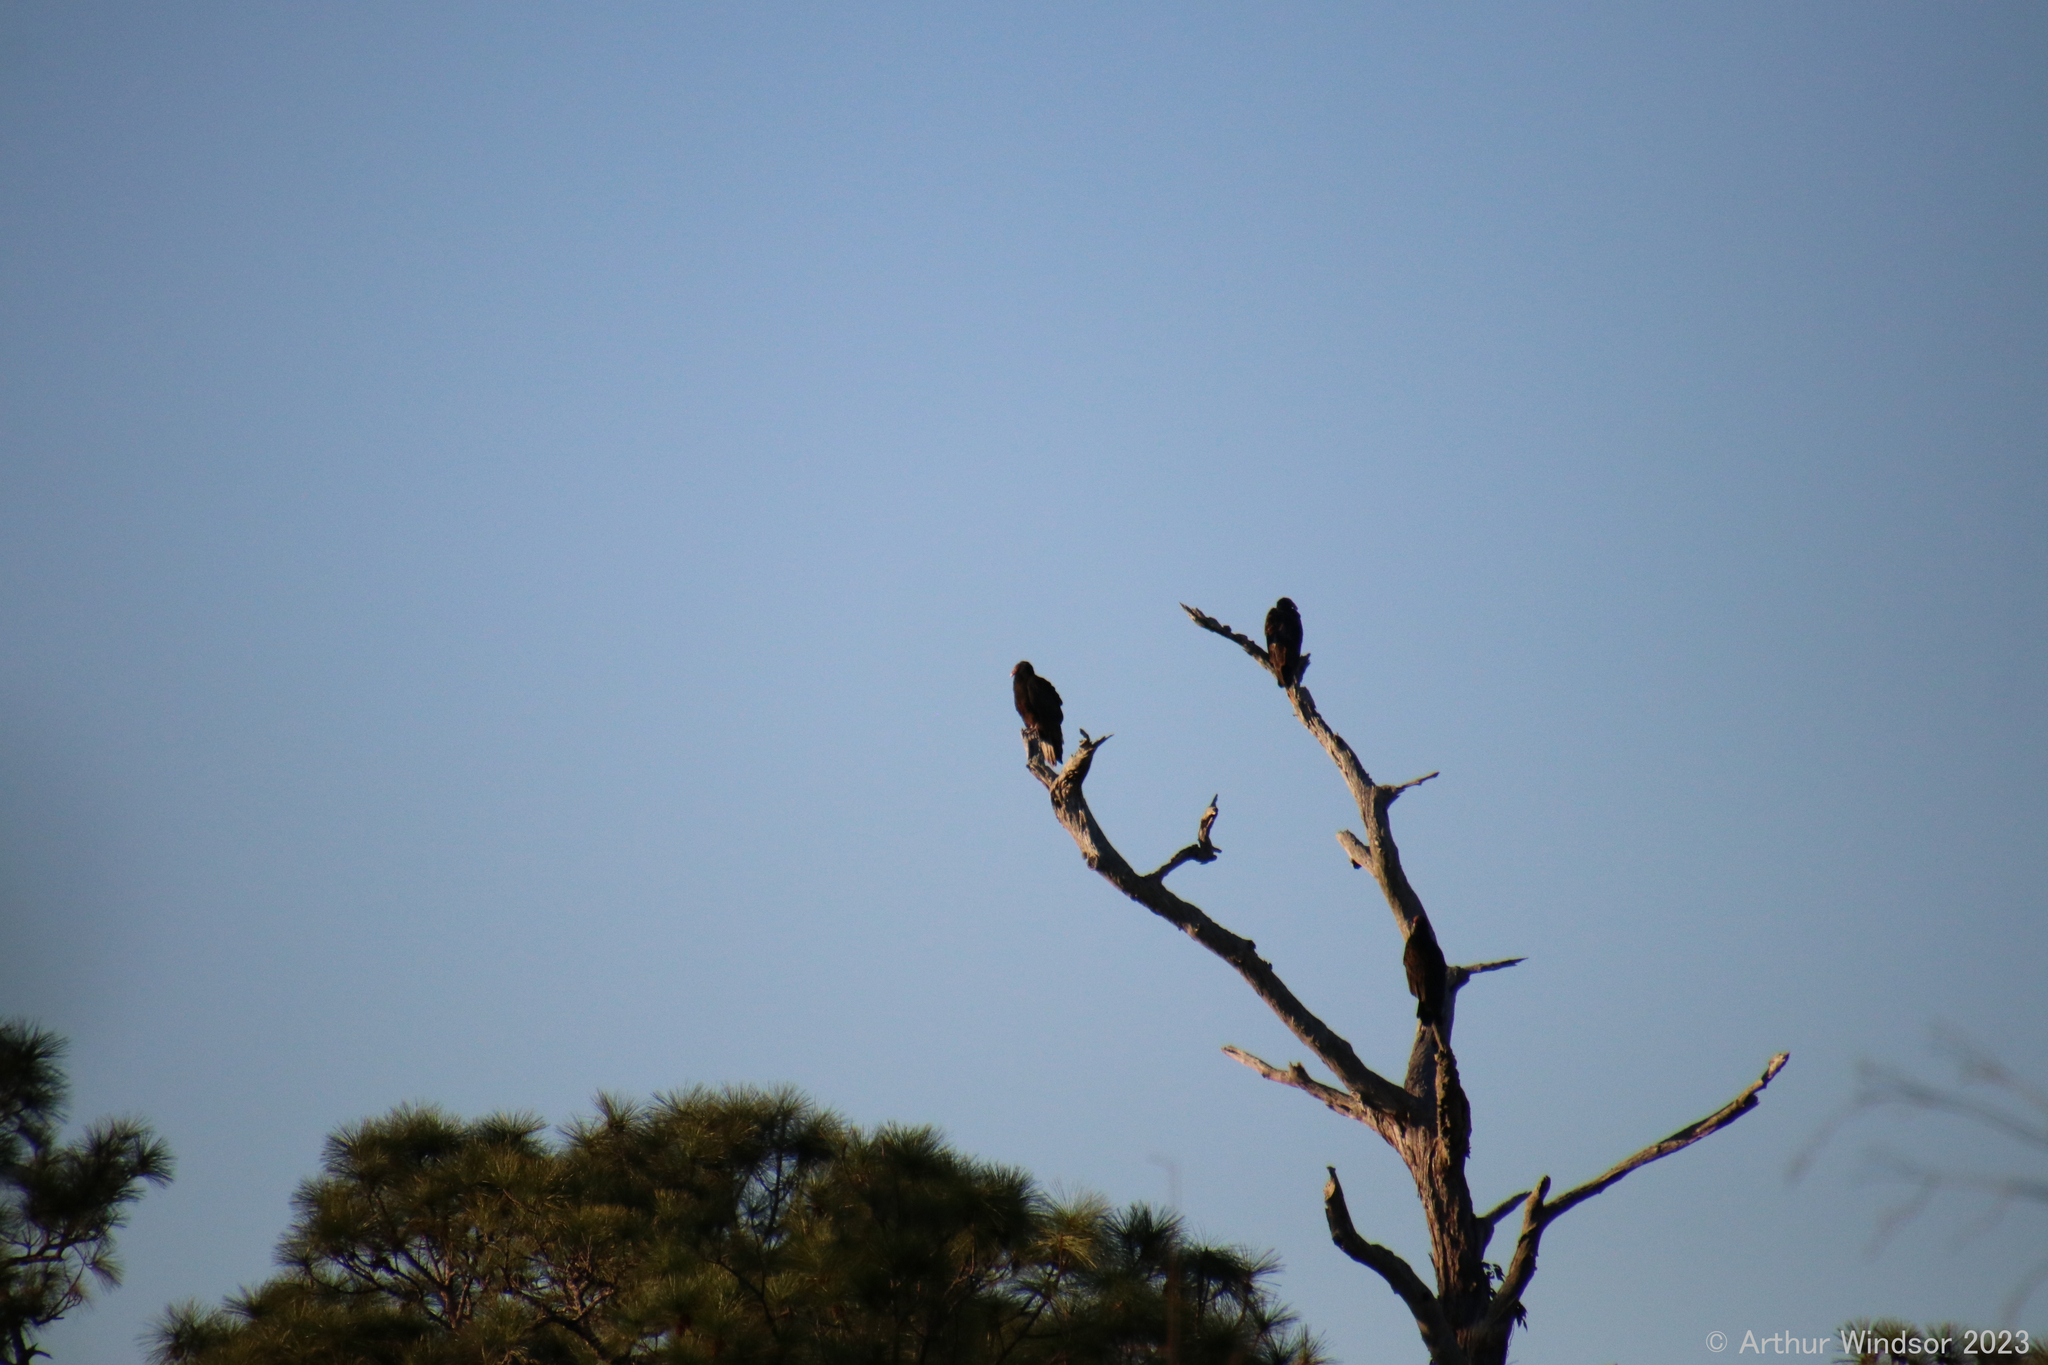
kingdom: Animalia
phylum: Chordata
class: Aves
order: Accipitriformes
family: Cathartidae
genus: Cathartes
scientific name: Cathartes aura
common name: Turkey vulture
